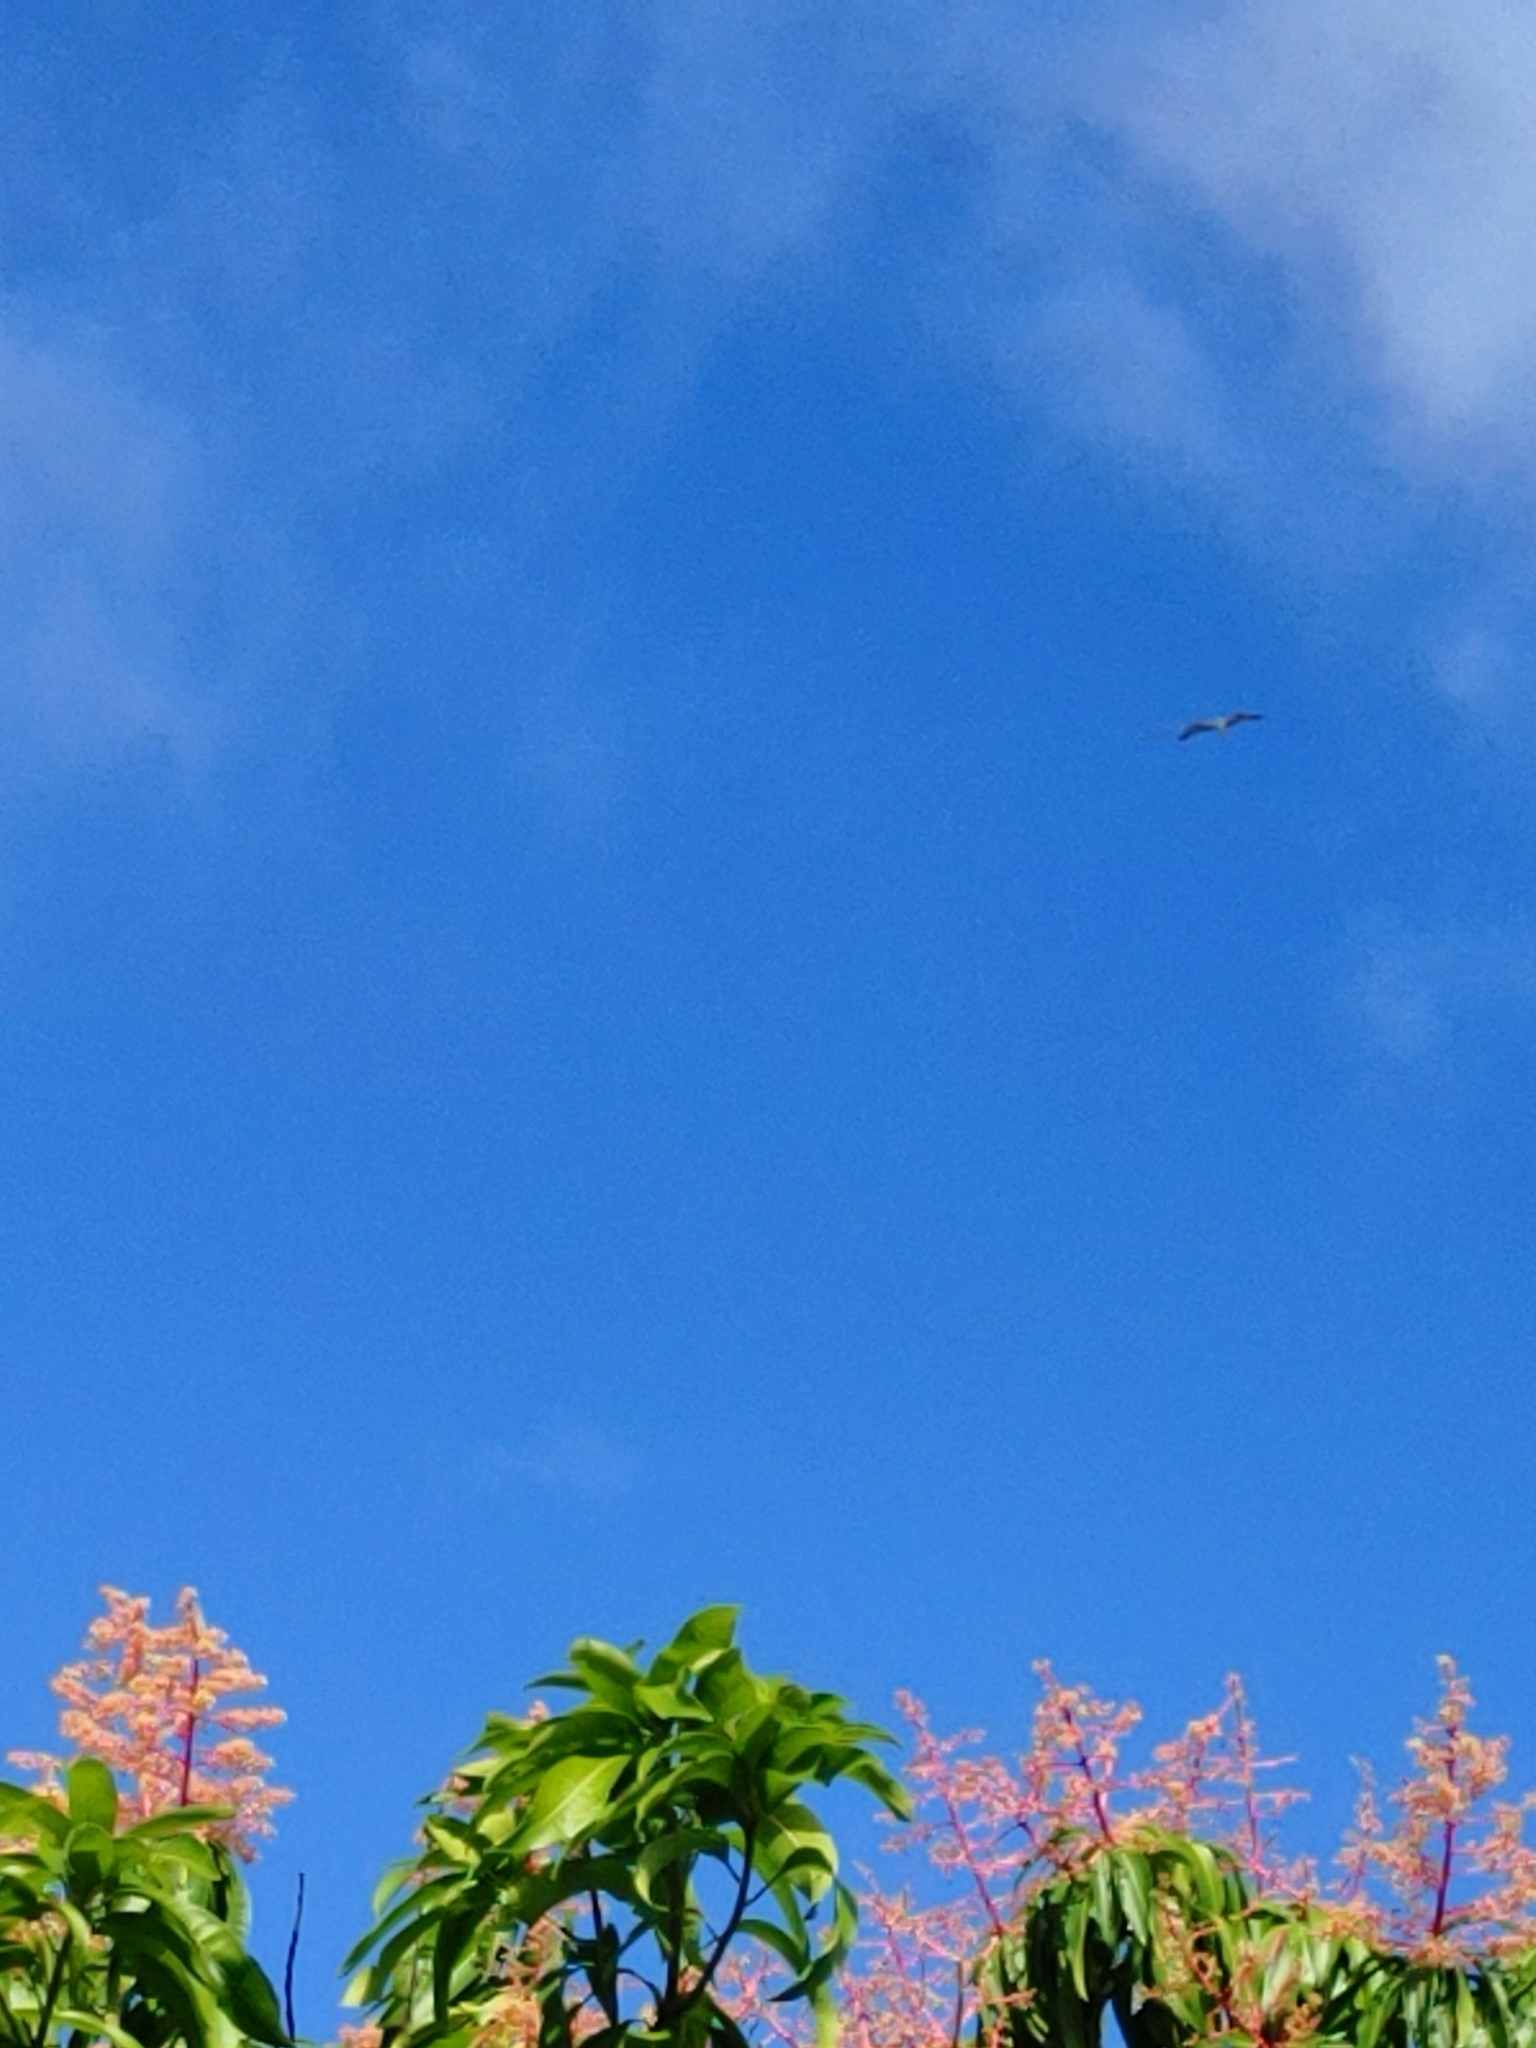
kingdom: Animalia
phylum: Chordata
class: Aves
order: Accipitriformes
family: Pandionidae
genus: Pandion
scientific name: Pandion haliaetus
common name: Osprey
